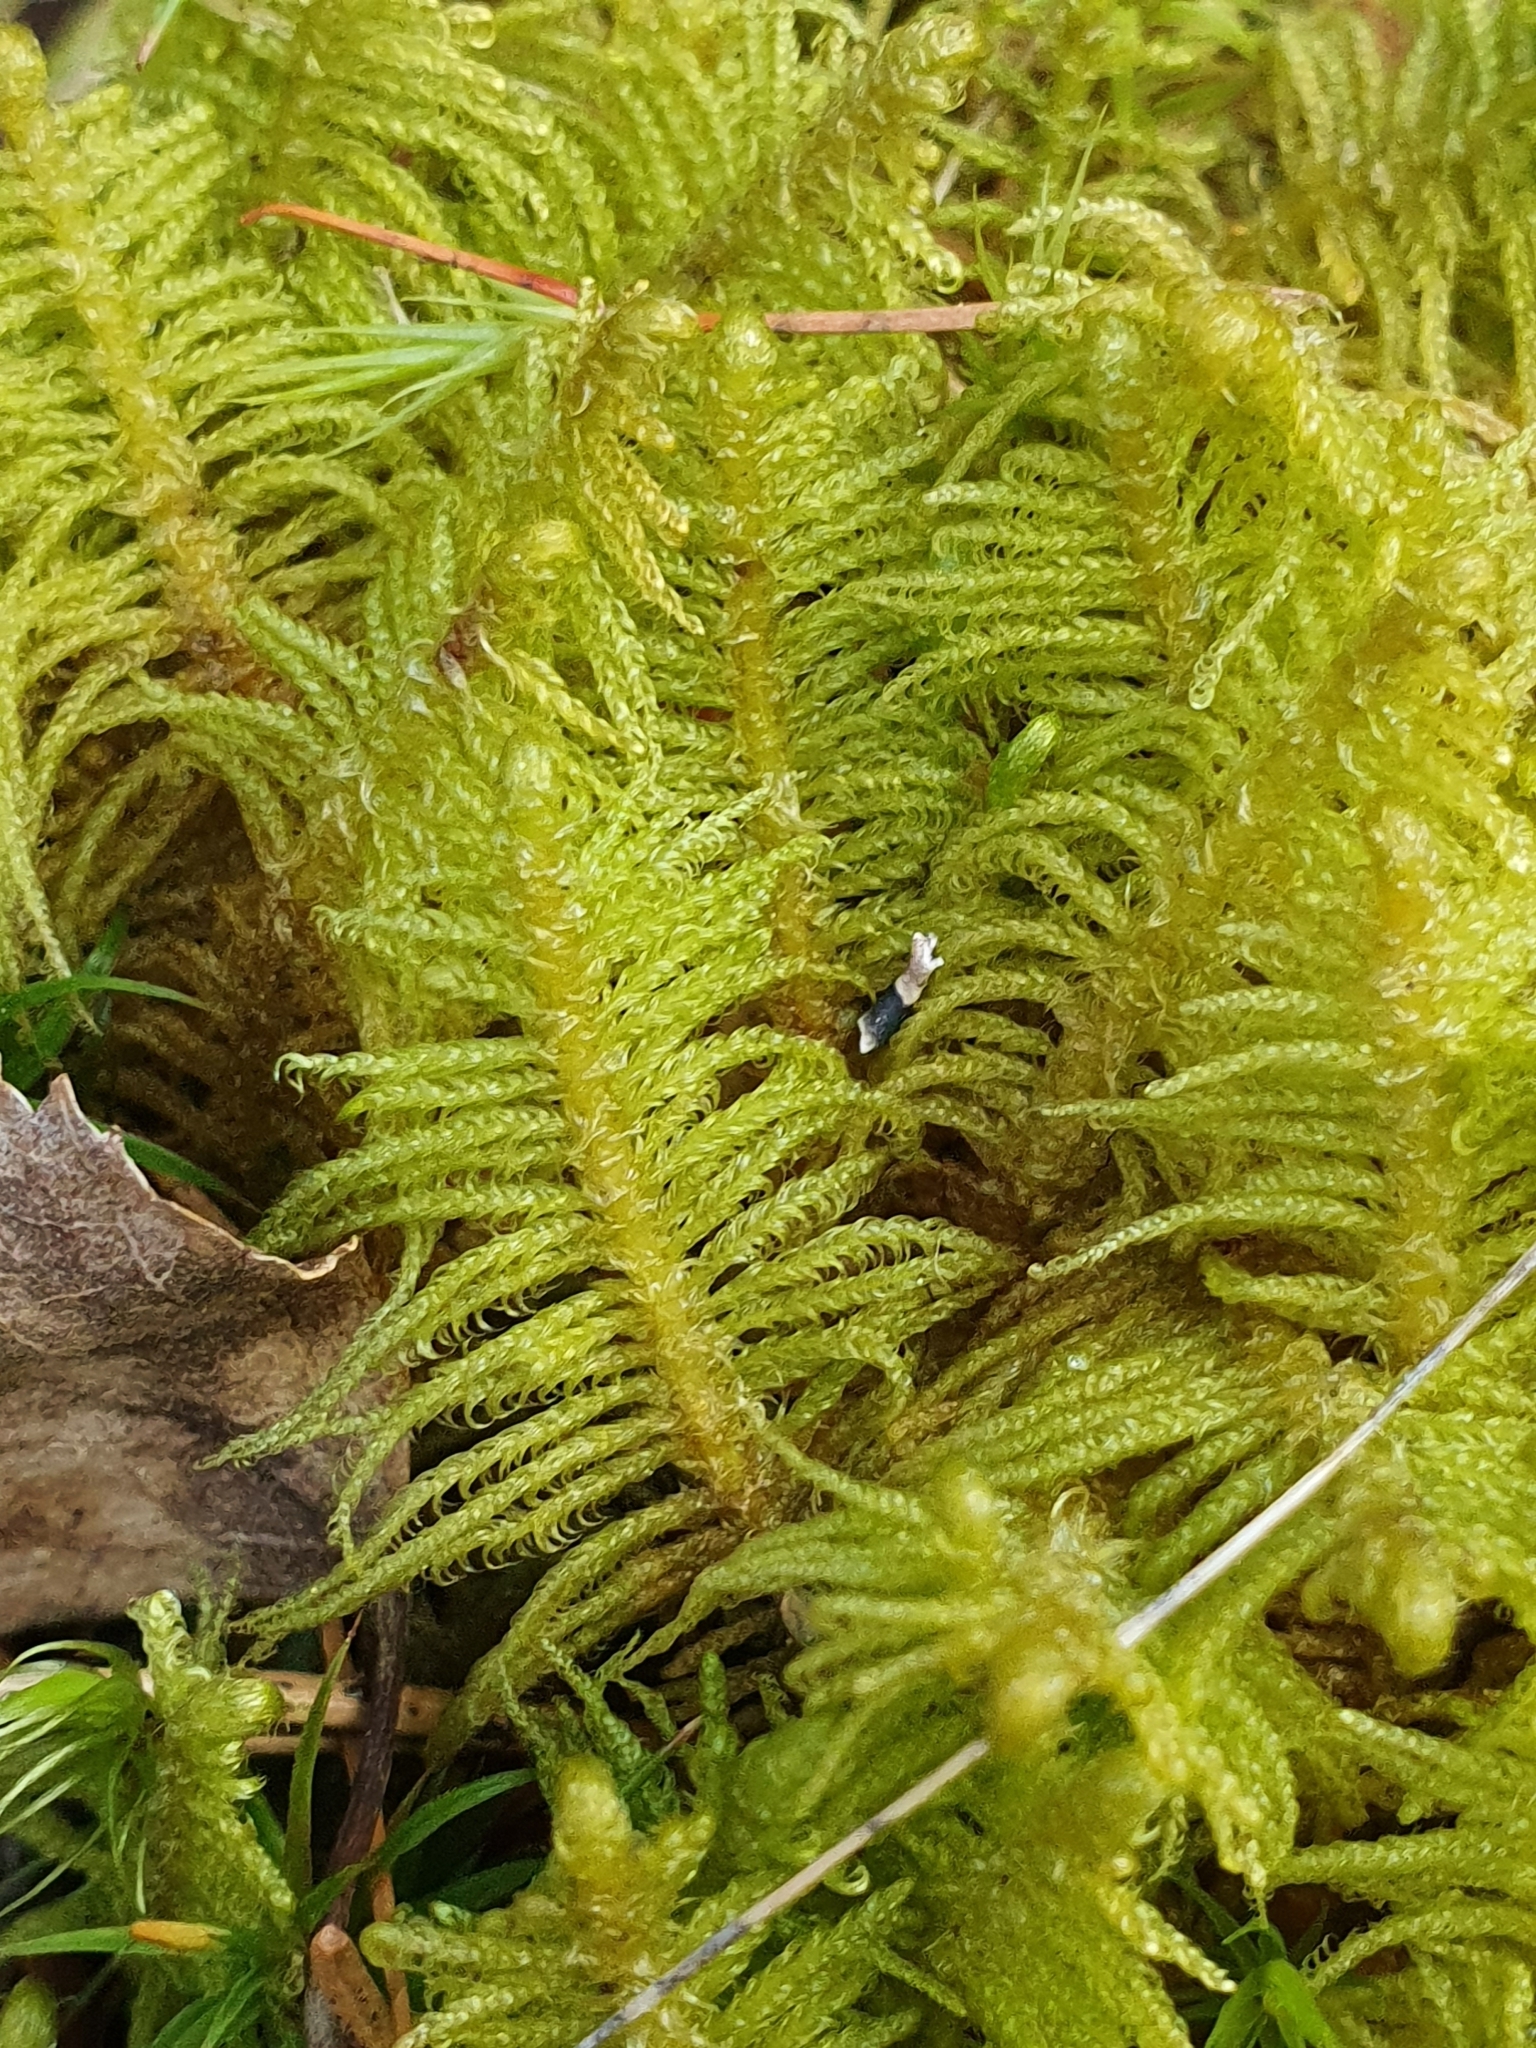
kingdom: Plantae
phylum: Bryophyta
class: Bryopsida
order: Hypnales
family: Pylaisiaceae
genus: Ptilium
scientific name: Ptilium crista-castrensis
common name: Knight's plume moss
